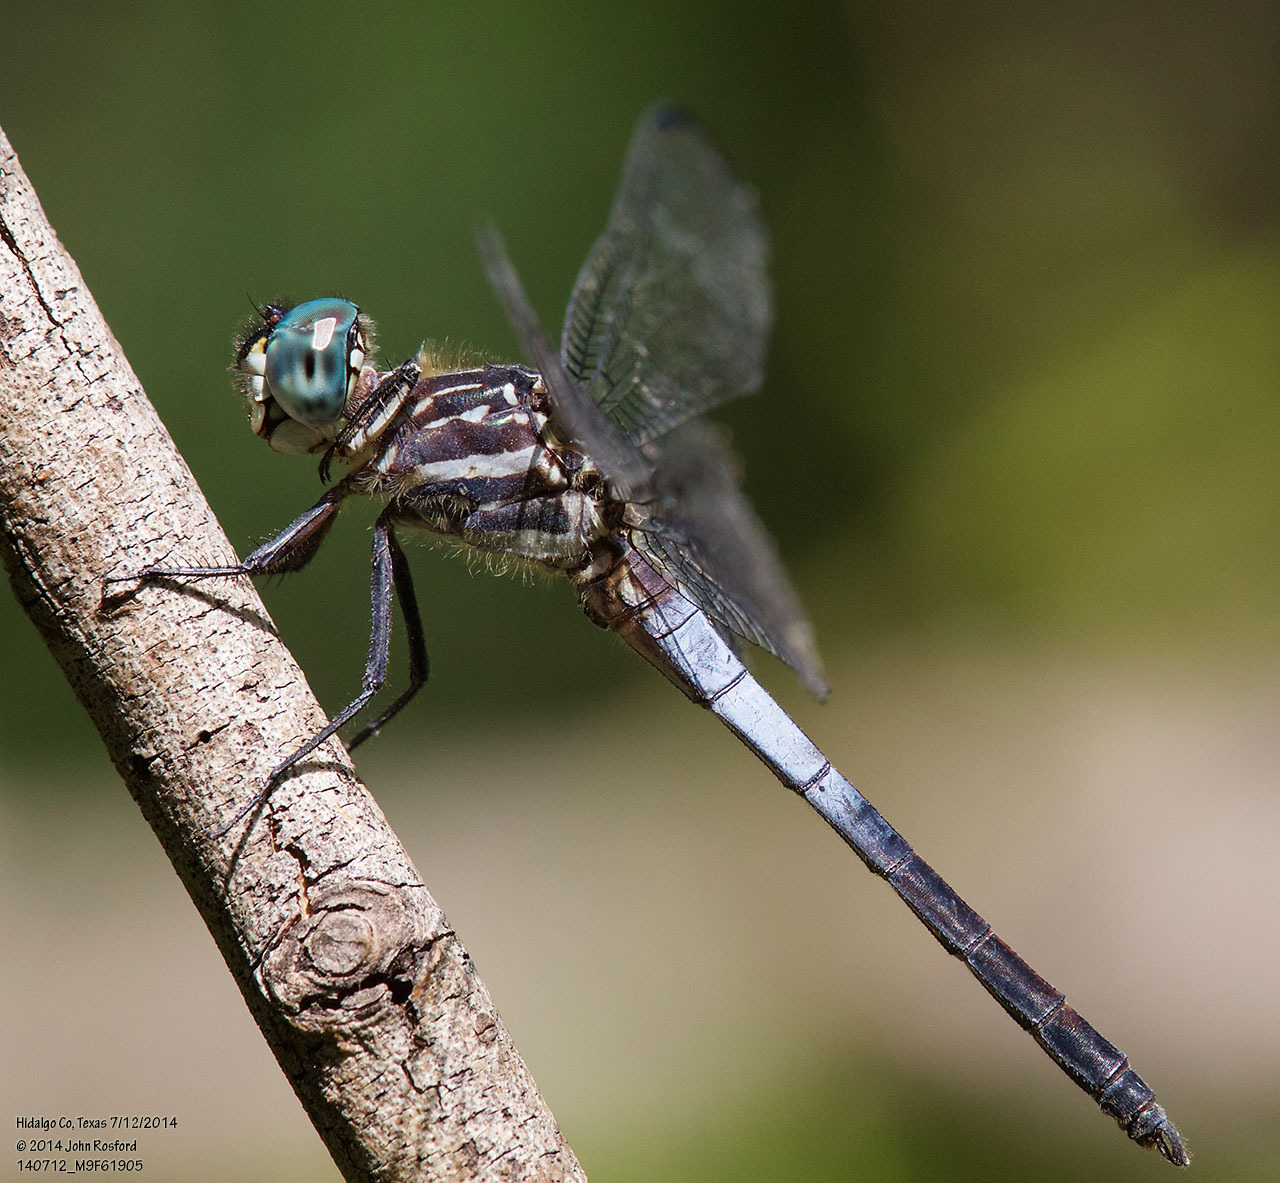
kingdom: Animalia
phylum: Arthropoda
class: Insecta
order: Odonata
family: Libellulidae
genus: Cannaphila
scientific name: Cannaphila insularis
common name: Gray-waisted skimmer
